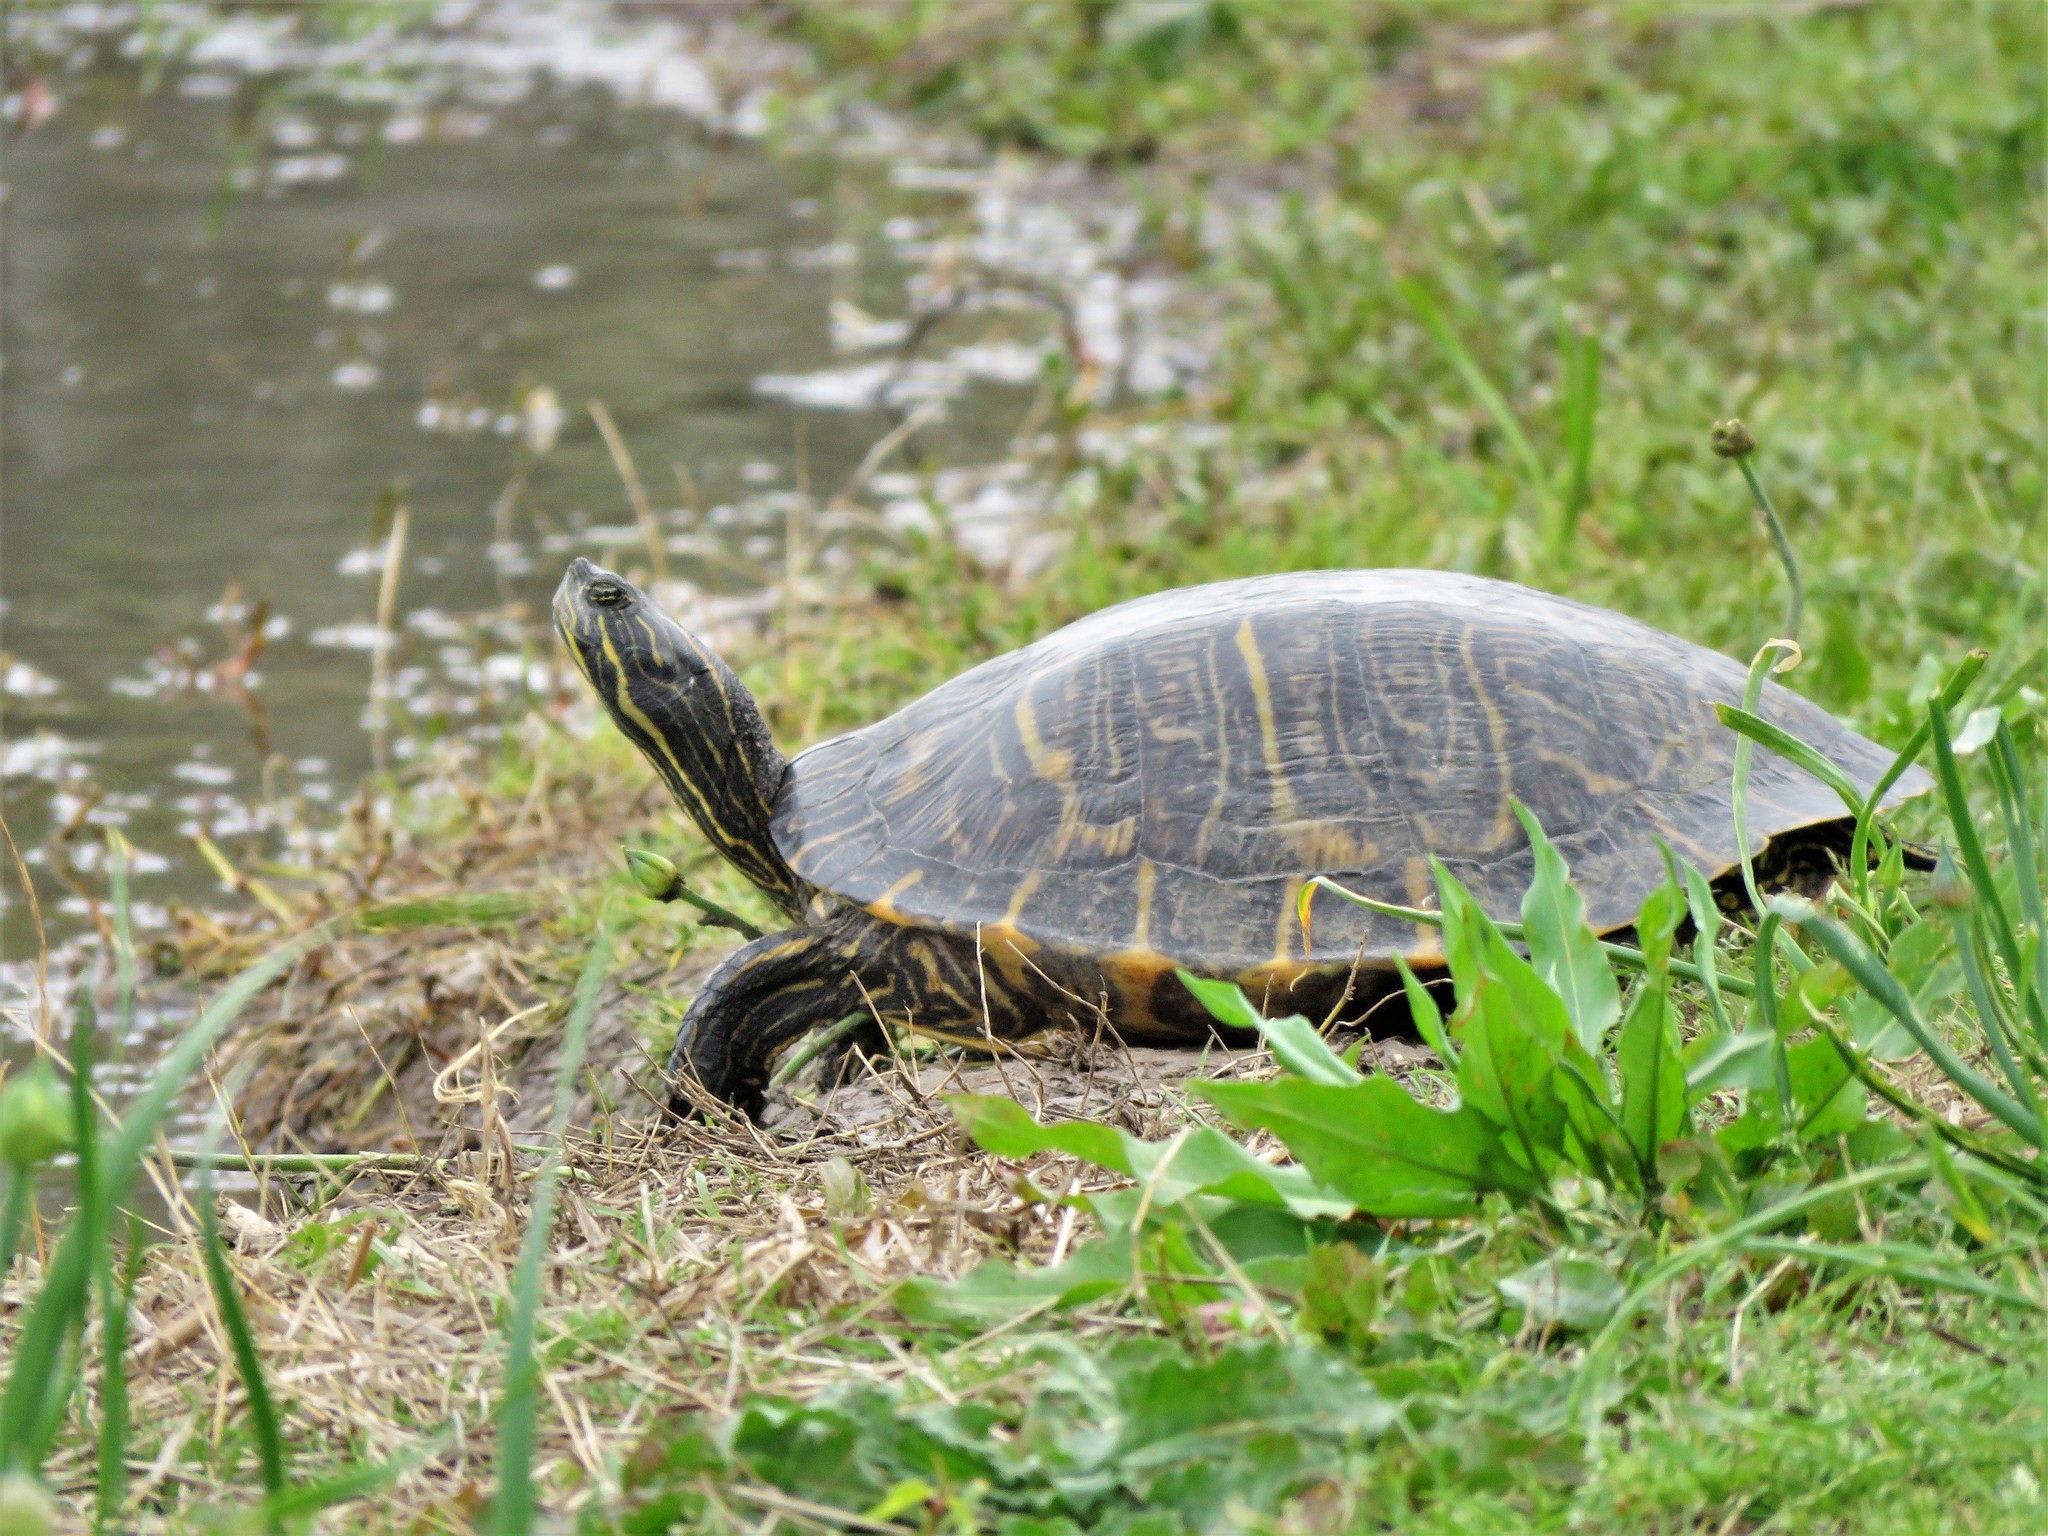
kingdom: Animalia
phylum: Chordata
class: Testudines
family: Emydidae
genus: Pseudemys
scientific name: Pseudemys concinna
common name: Eastern river cooter
